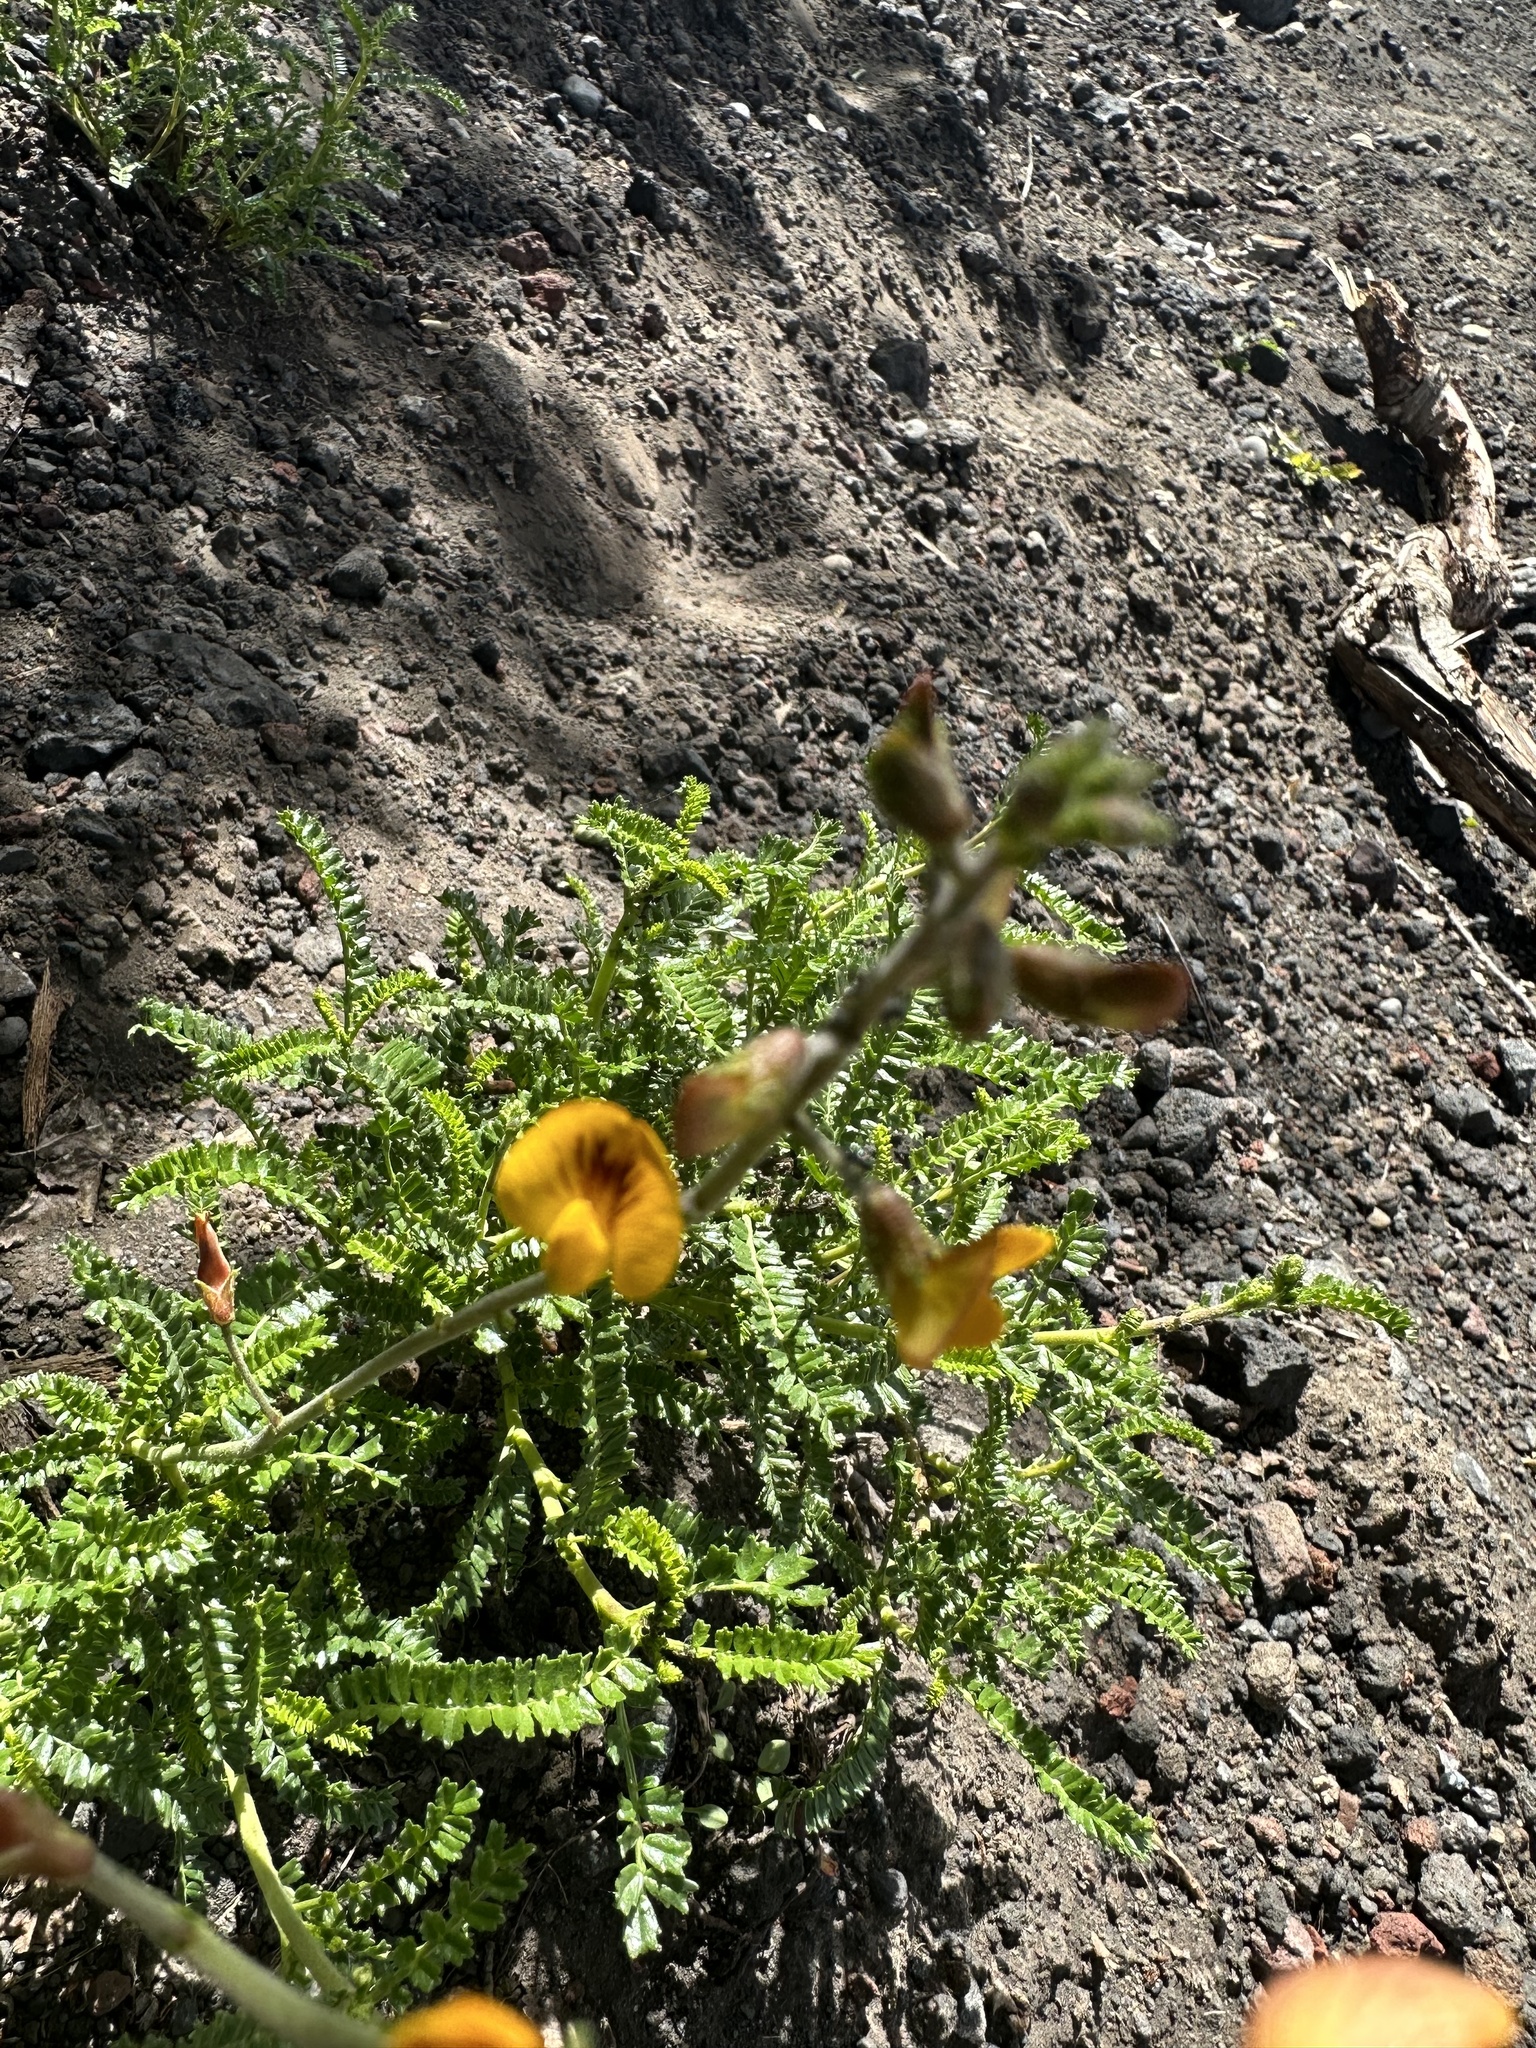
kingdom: Plantae
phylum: Tracheophyta
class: Magnoliopsida
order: Fabales
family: Fabaceae
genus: Adesmia
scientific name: Adesmia emarginata
